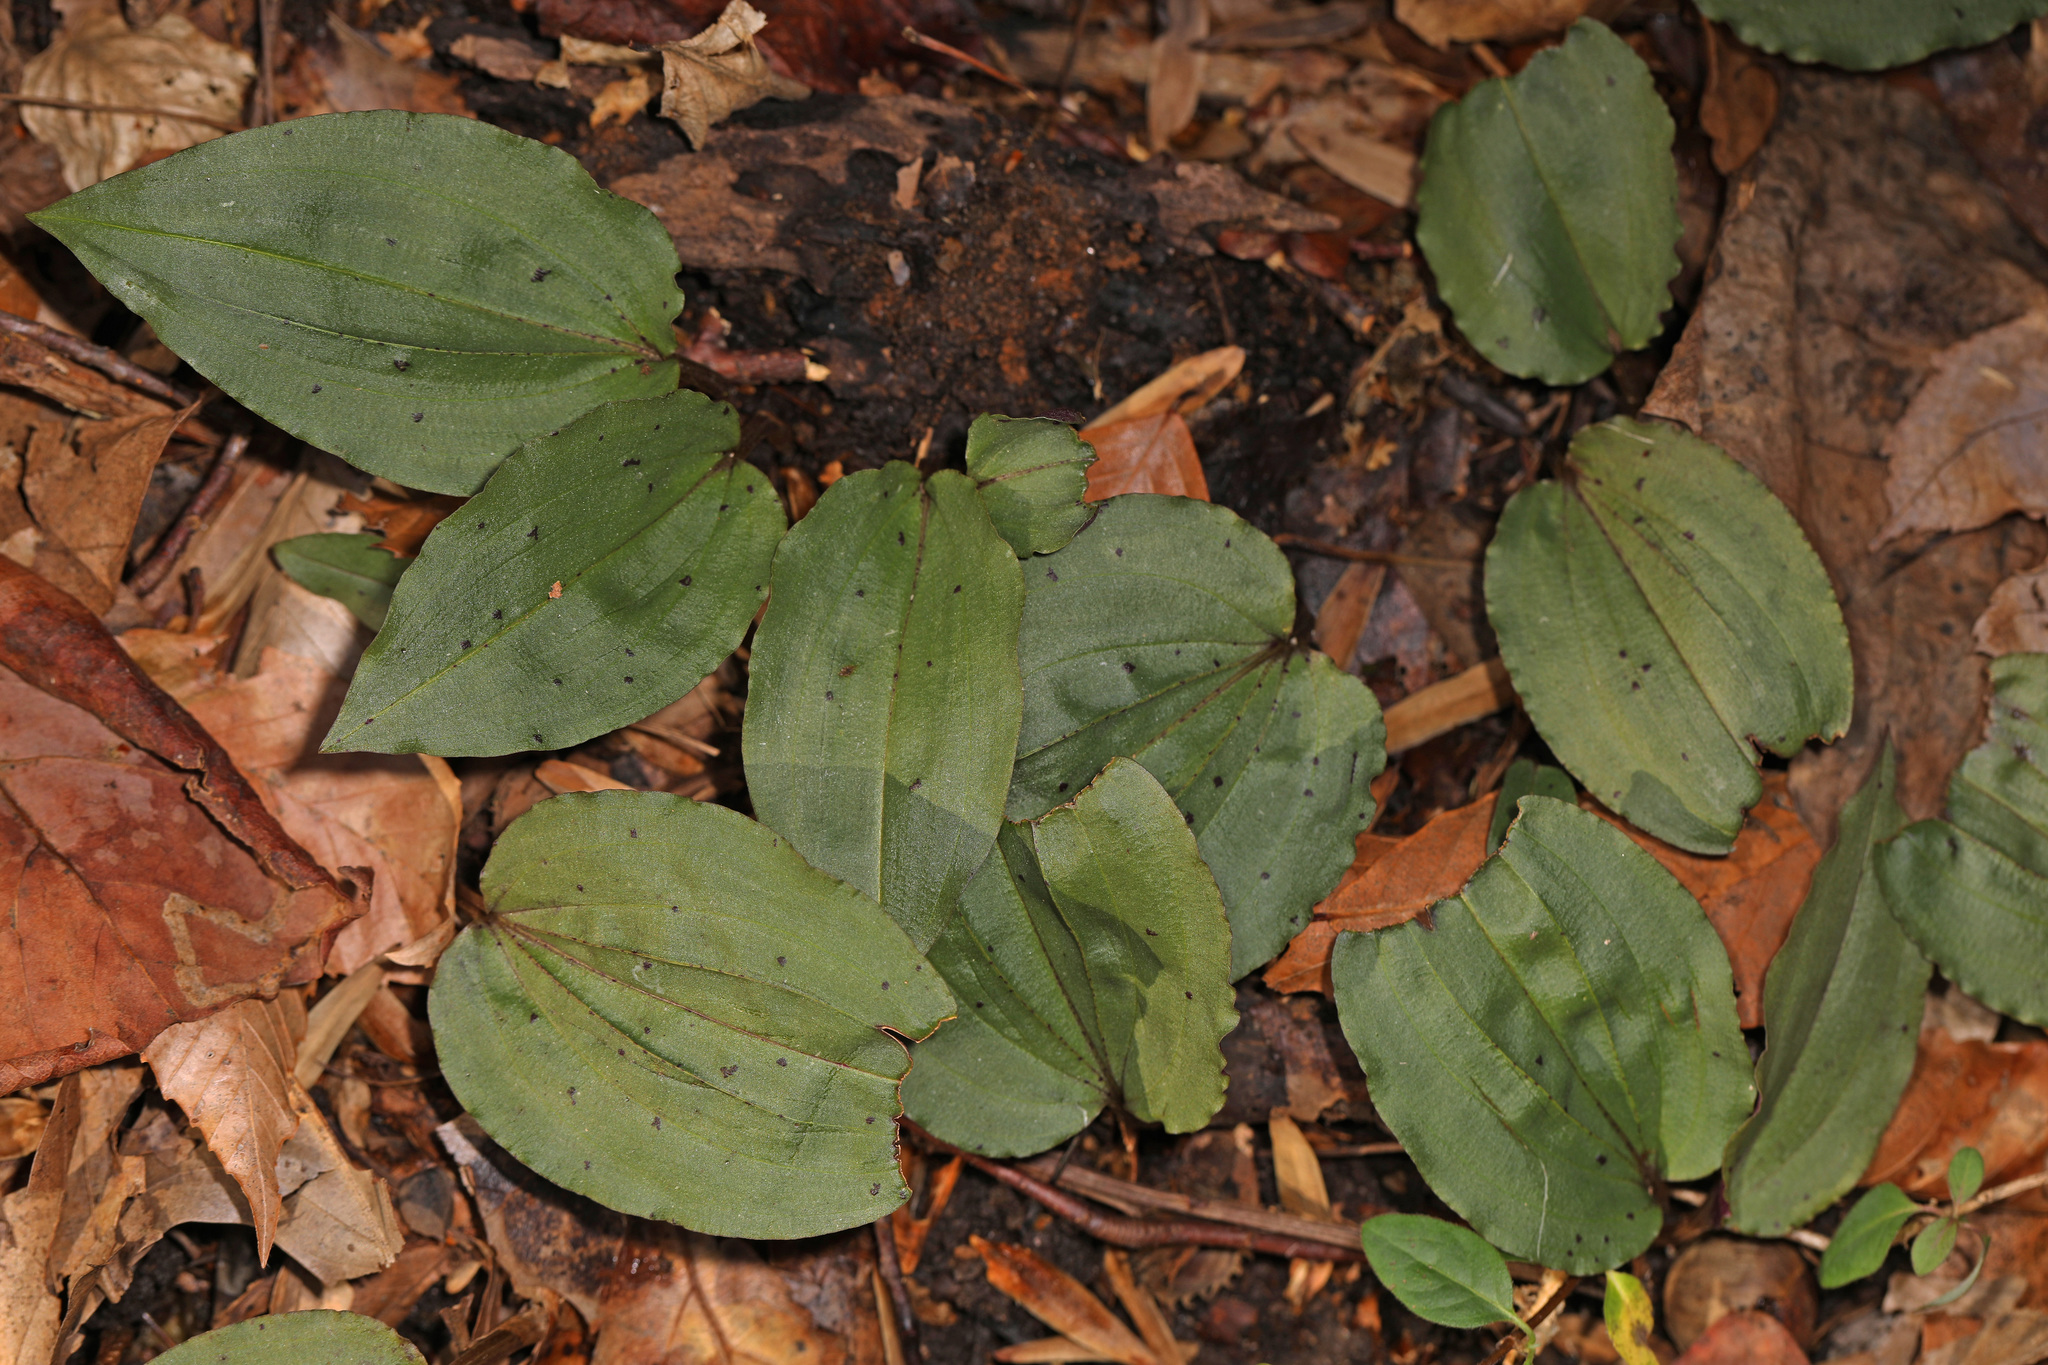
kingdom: Plantae
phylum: Tracheophyta
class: Liliopsida
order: Asparagales
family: Orchidaceae
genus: Tipularia
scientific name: Tipularia discolor
